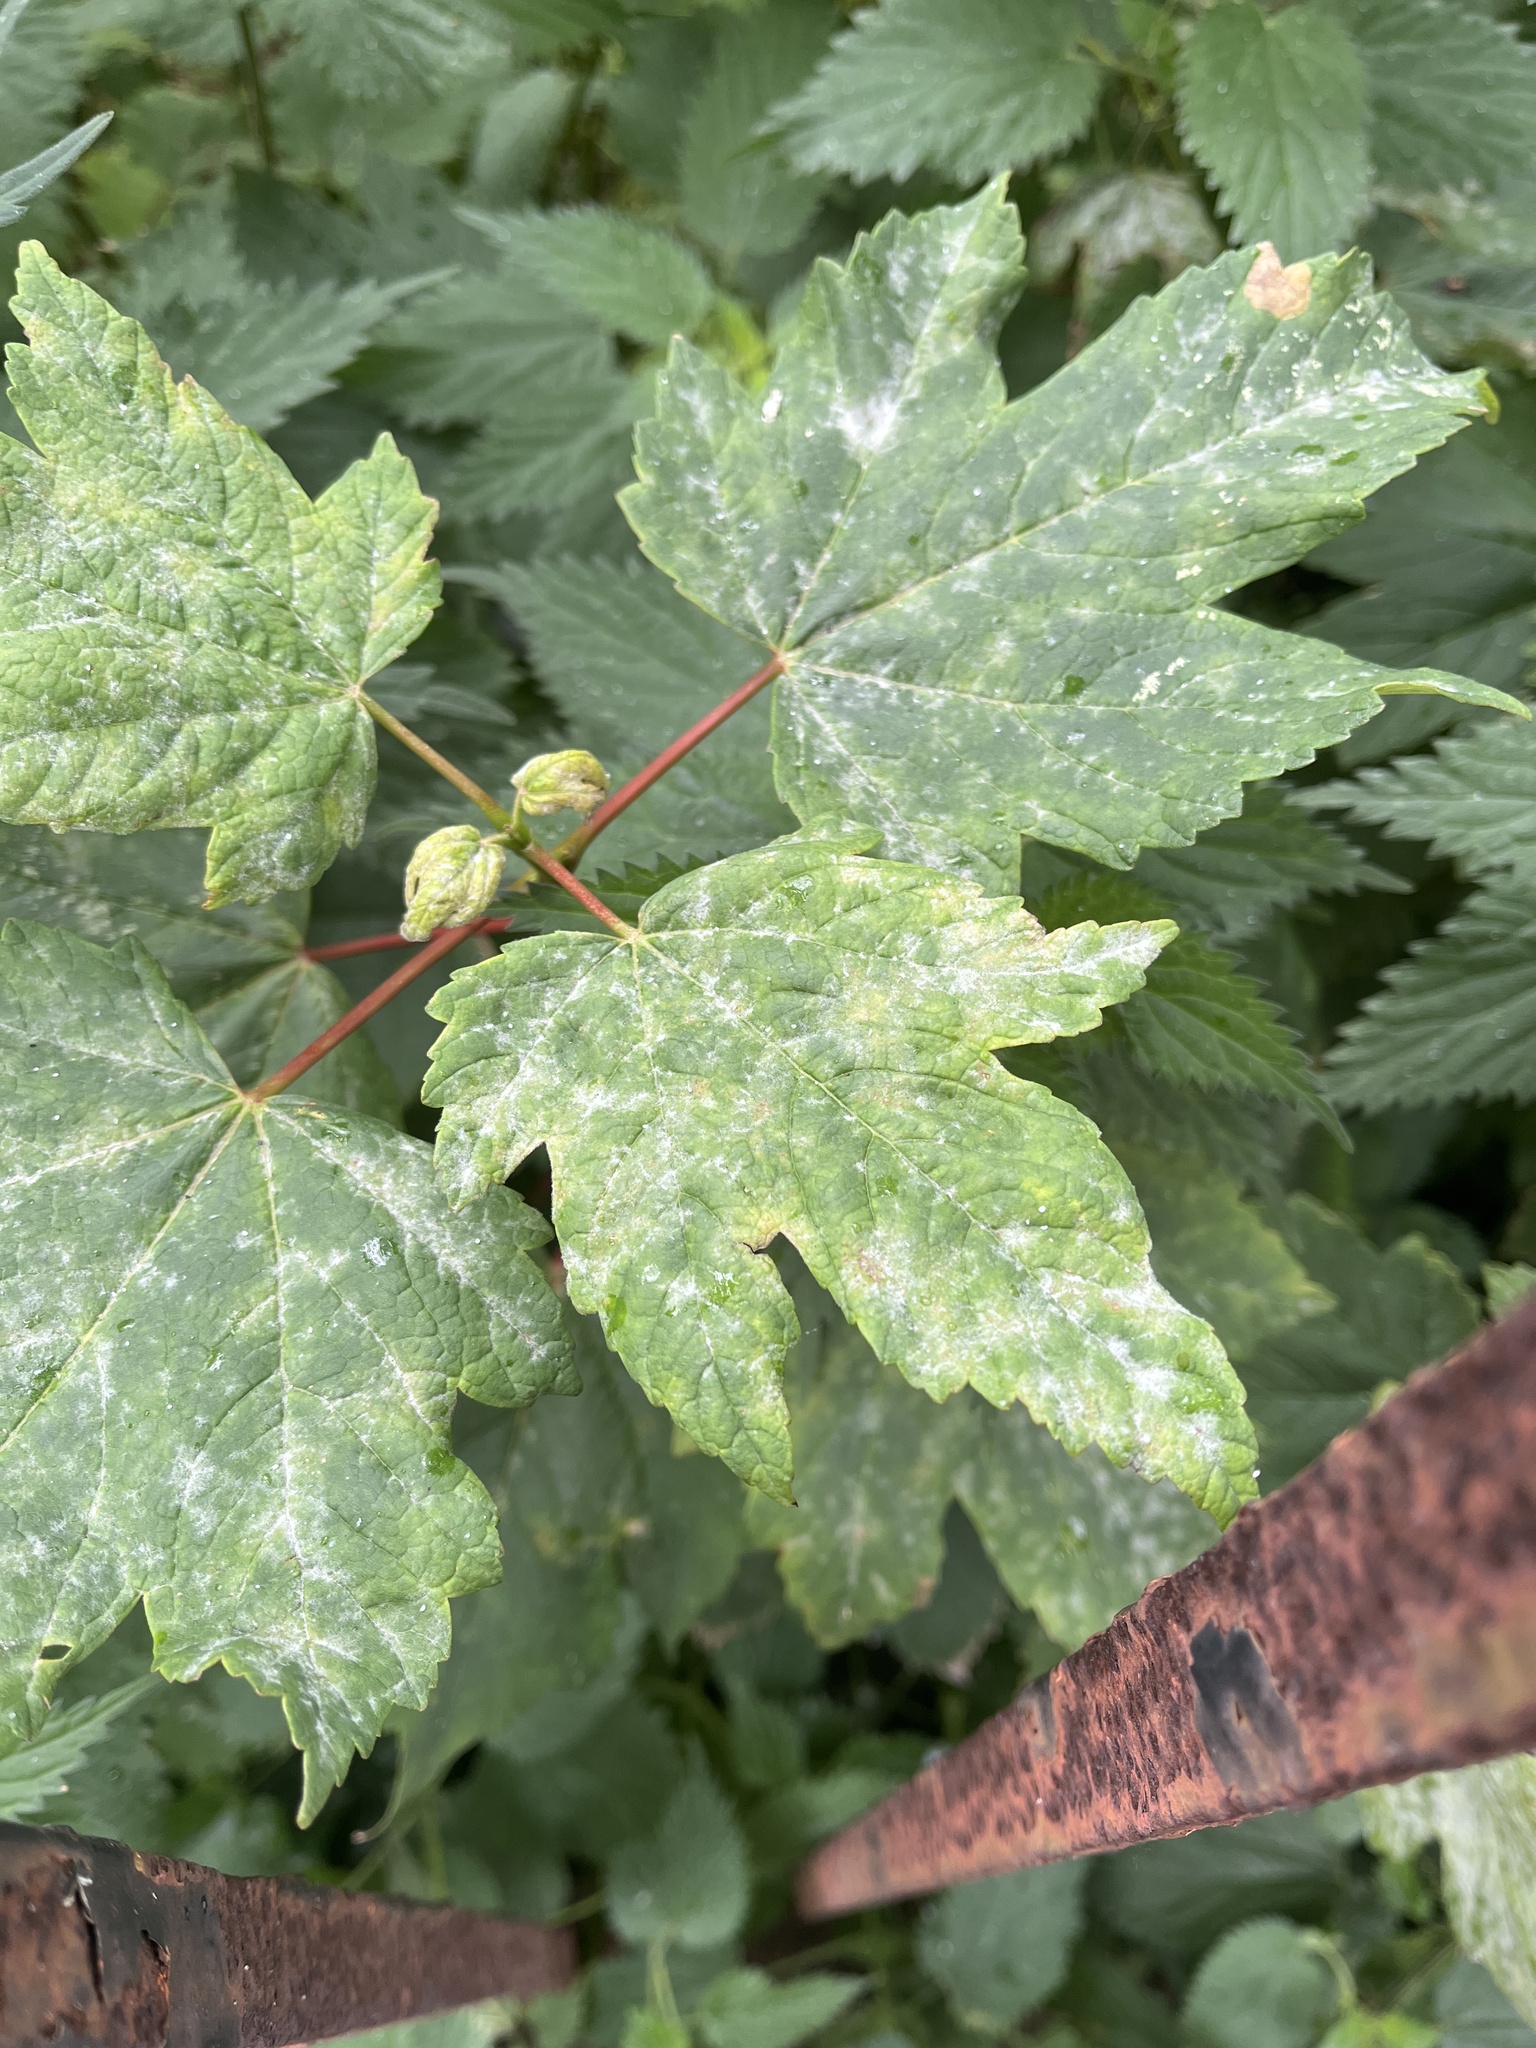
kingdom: Fungi
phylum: Ascomycota
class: Leotiomycetes
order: Helotiales
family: Erysiphaceae
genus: Sawadaea
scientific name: Sawadaea bicornis
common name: Maple mildew
